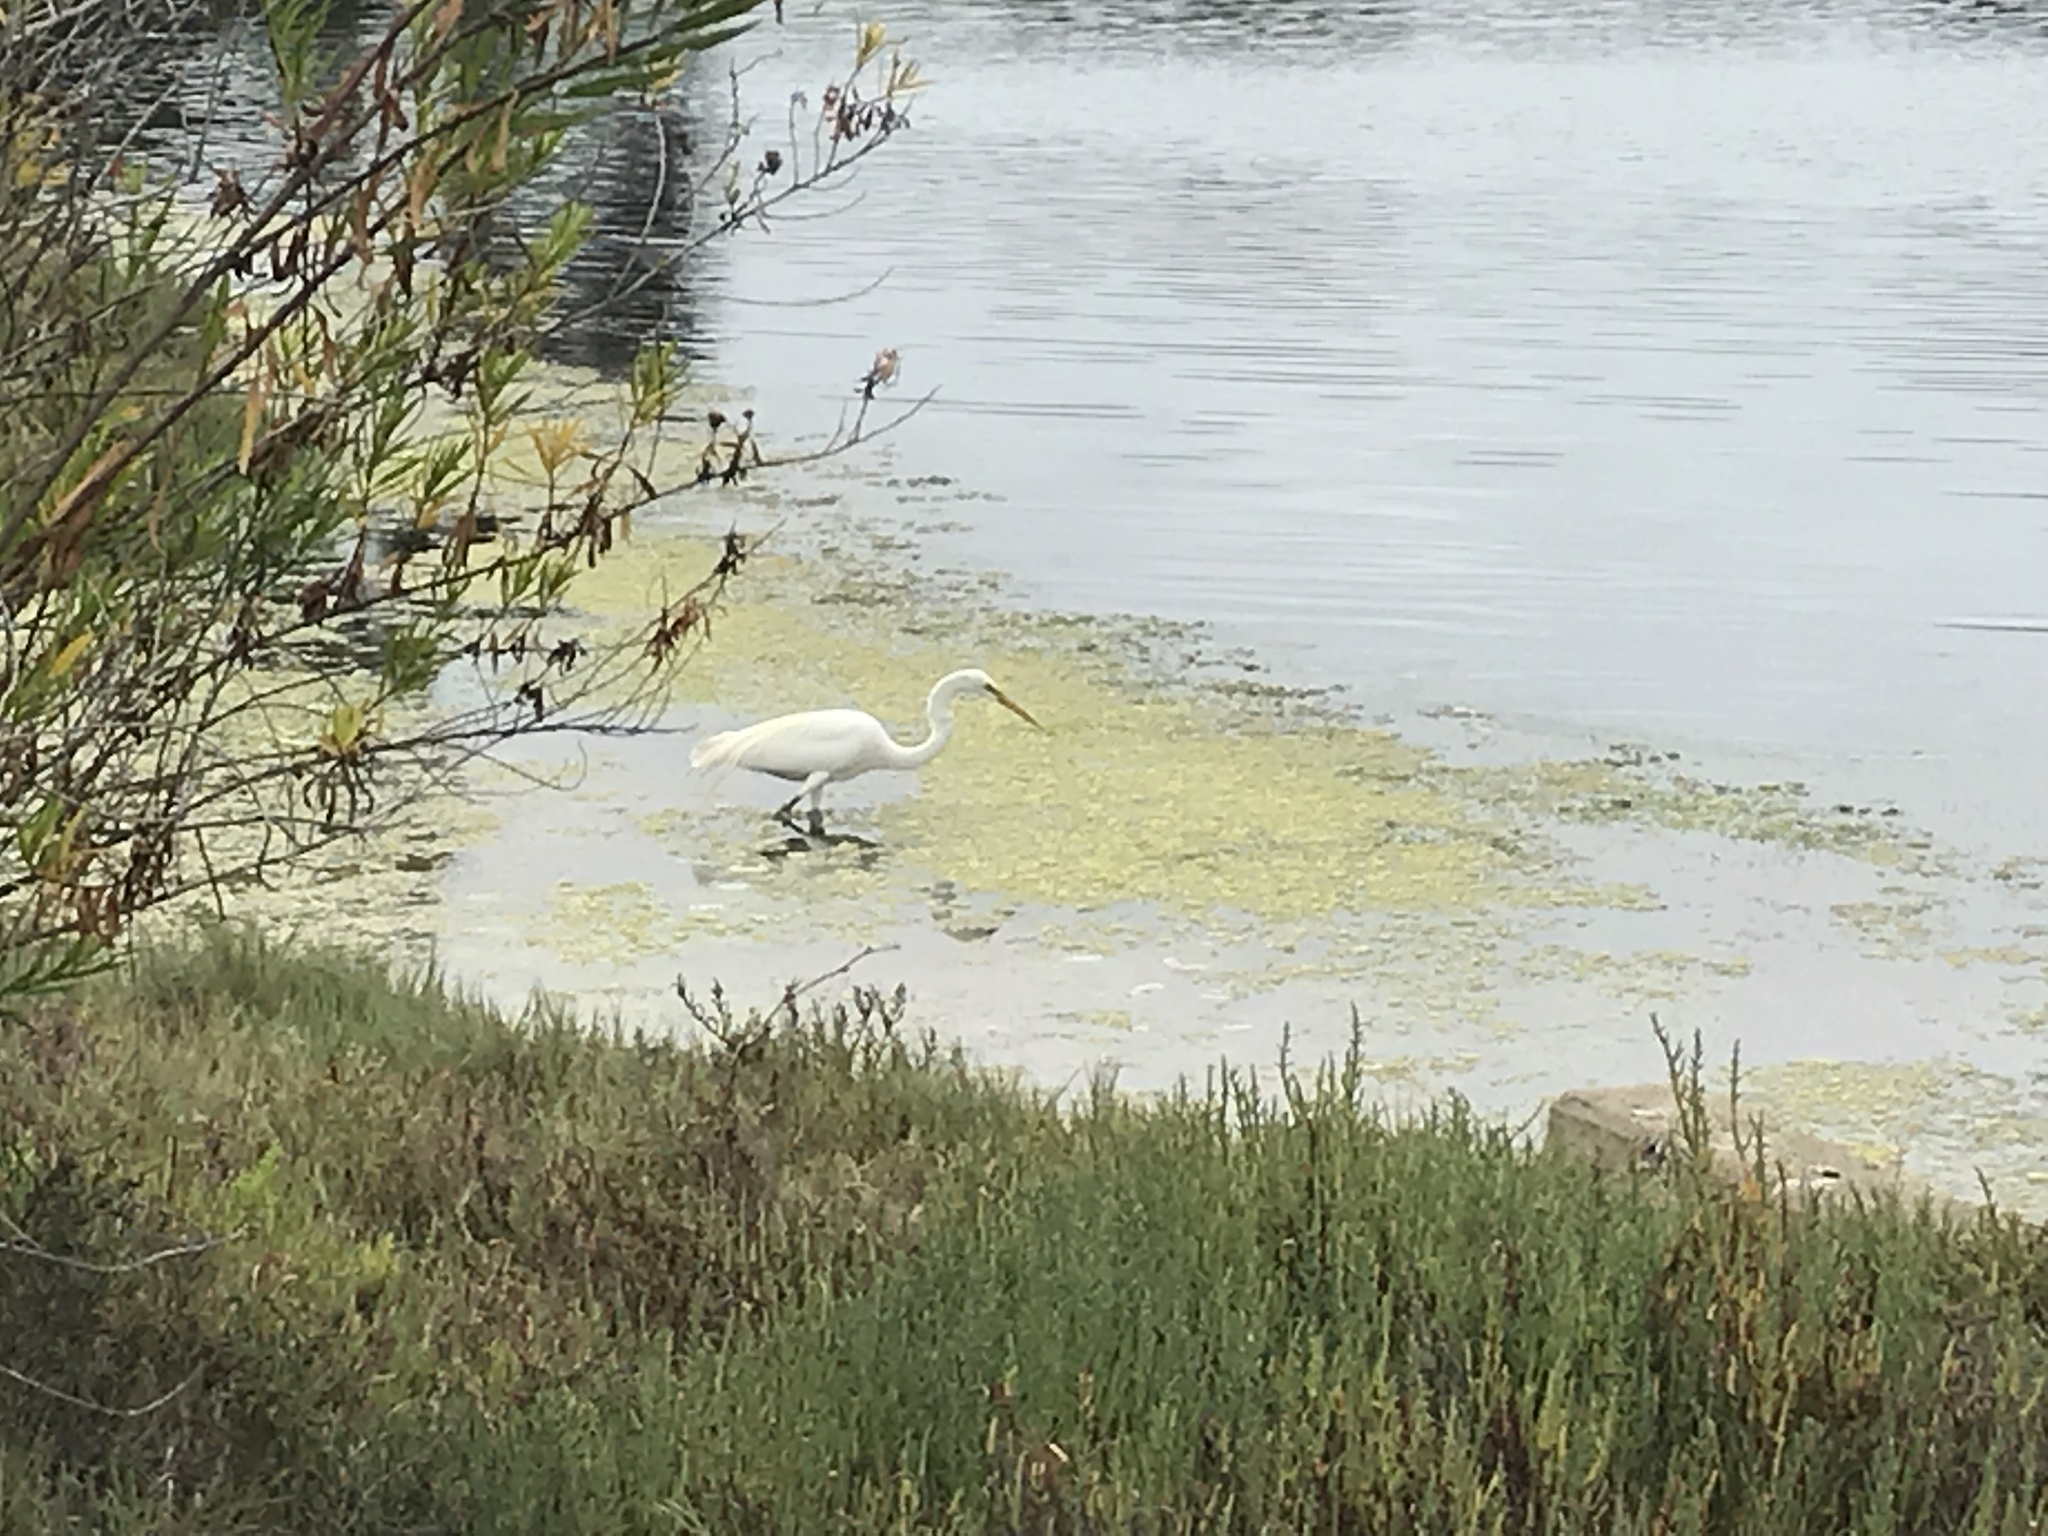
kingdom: Animalia
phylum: Chordata
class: Aves
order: Pelecaniformes
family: Ardeidae
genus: Ardea
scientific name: Ardea alba
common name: Great egret
